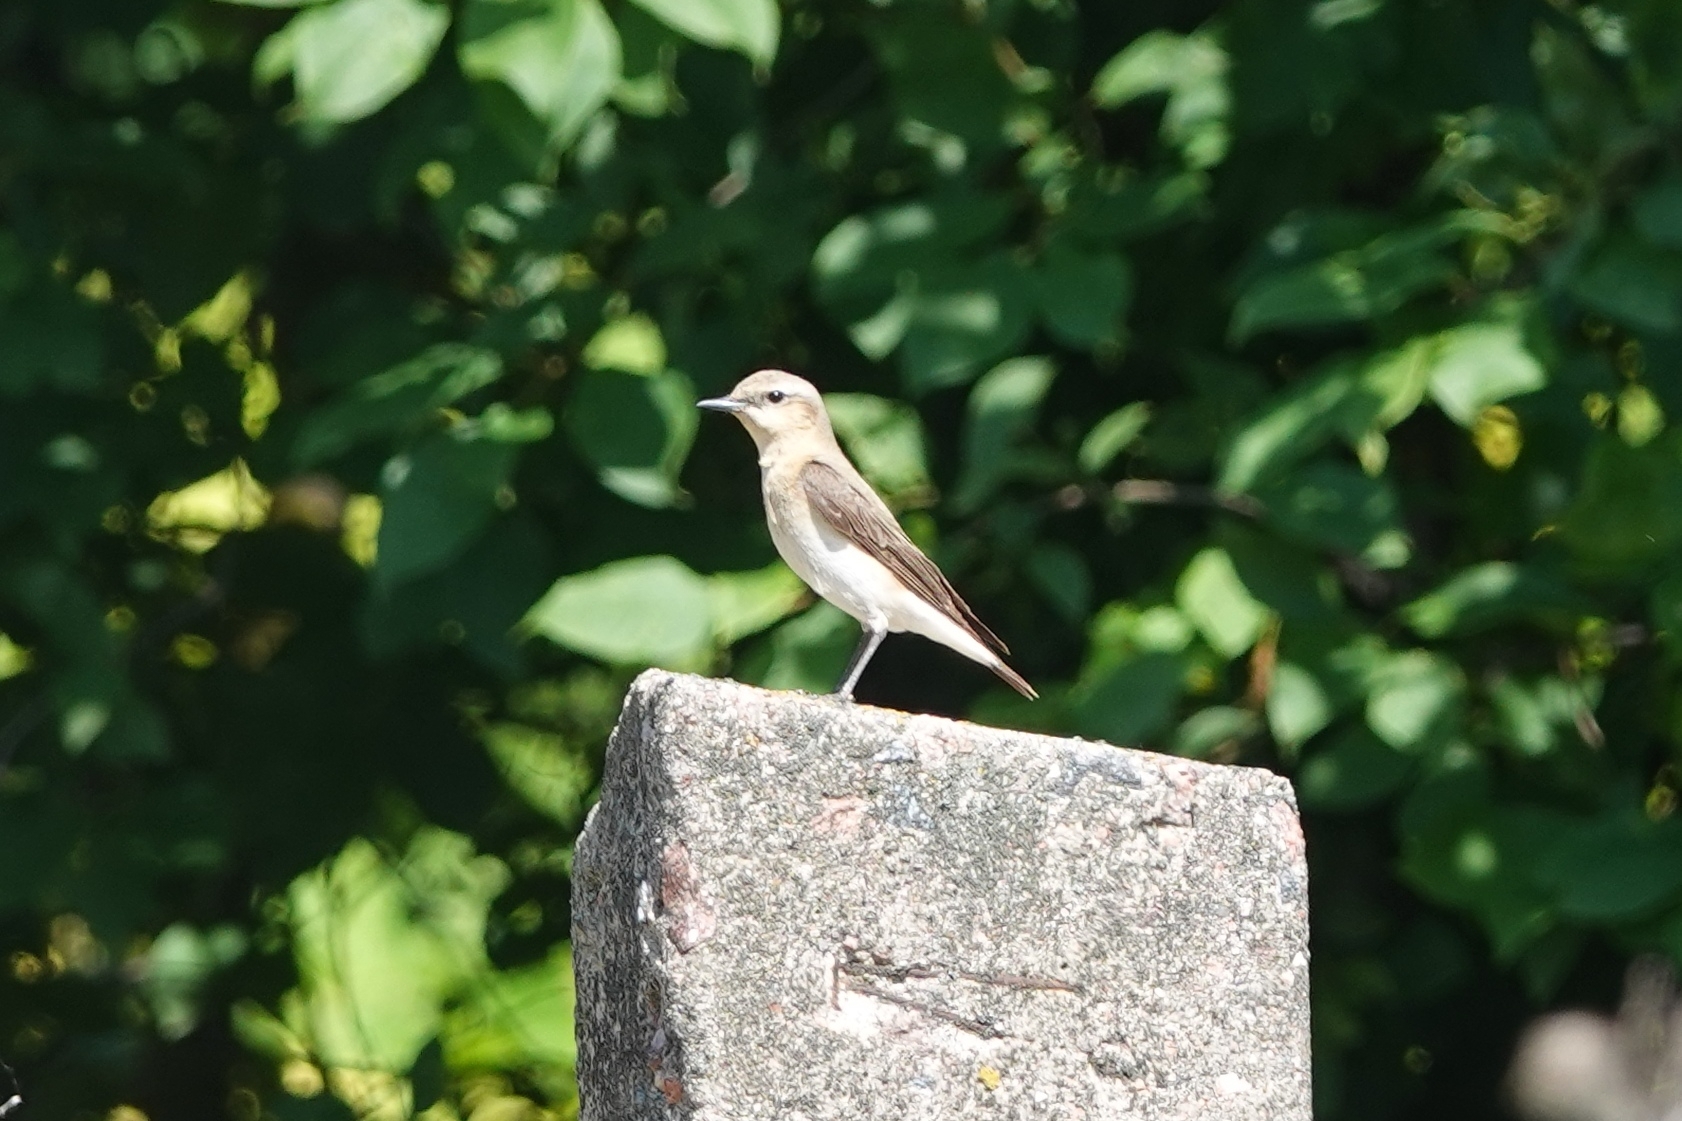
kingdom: Animalia
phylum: Chordata
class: Aves
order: Passeriformes
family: Muscicapidae
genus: Oenanthe
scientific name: Oenanthe oenanthe
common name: Northern wheatear
